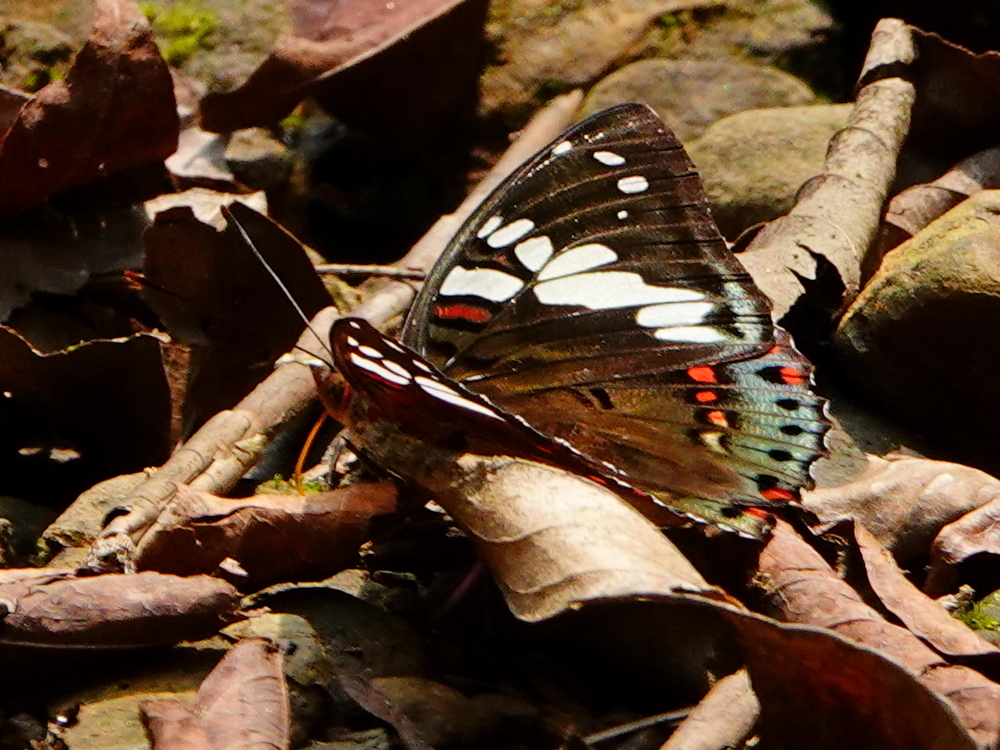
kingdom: Animalia
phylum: Arthropoda
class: Insecta
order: Lepidoptera
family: Nymphalidae
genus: Euthalia
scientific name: Euthalia lubentina
